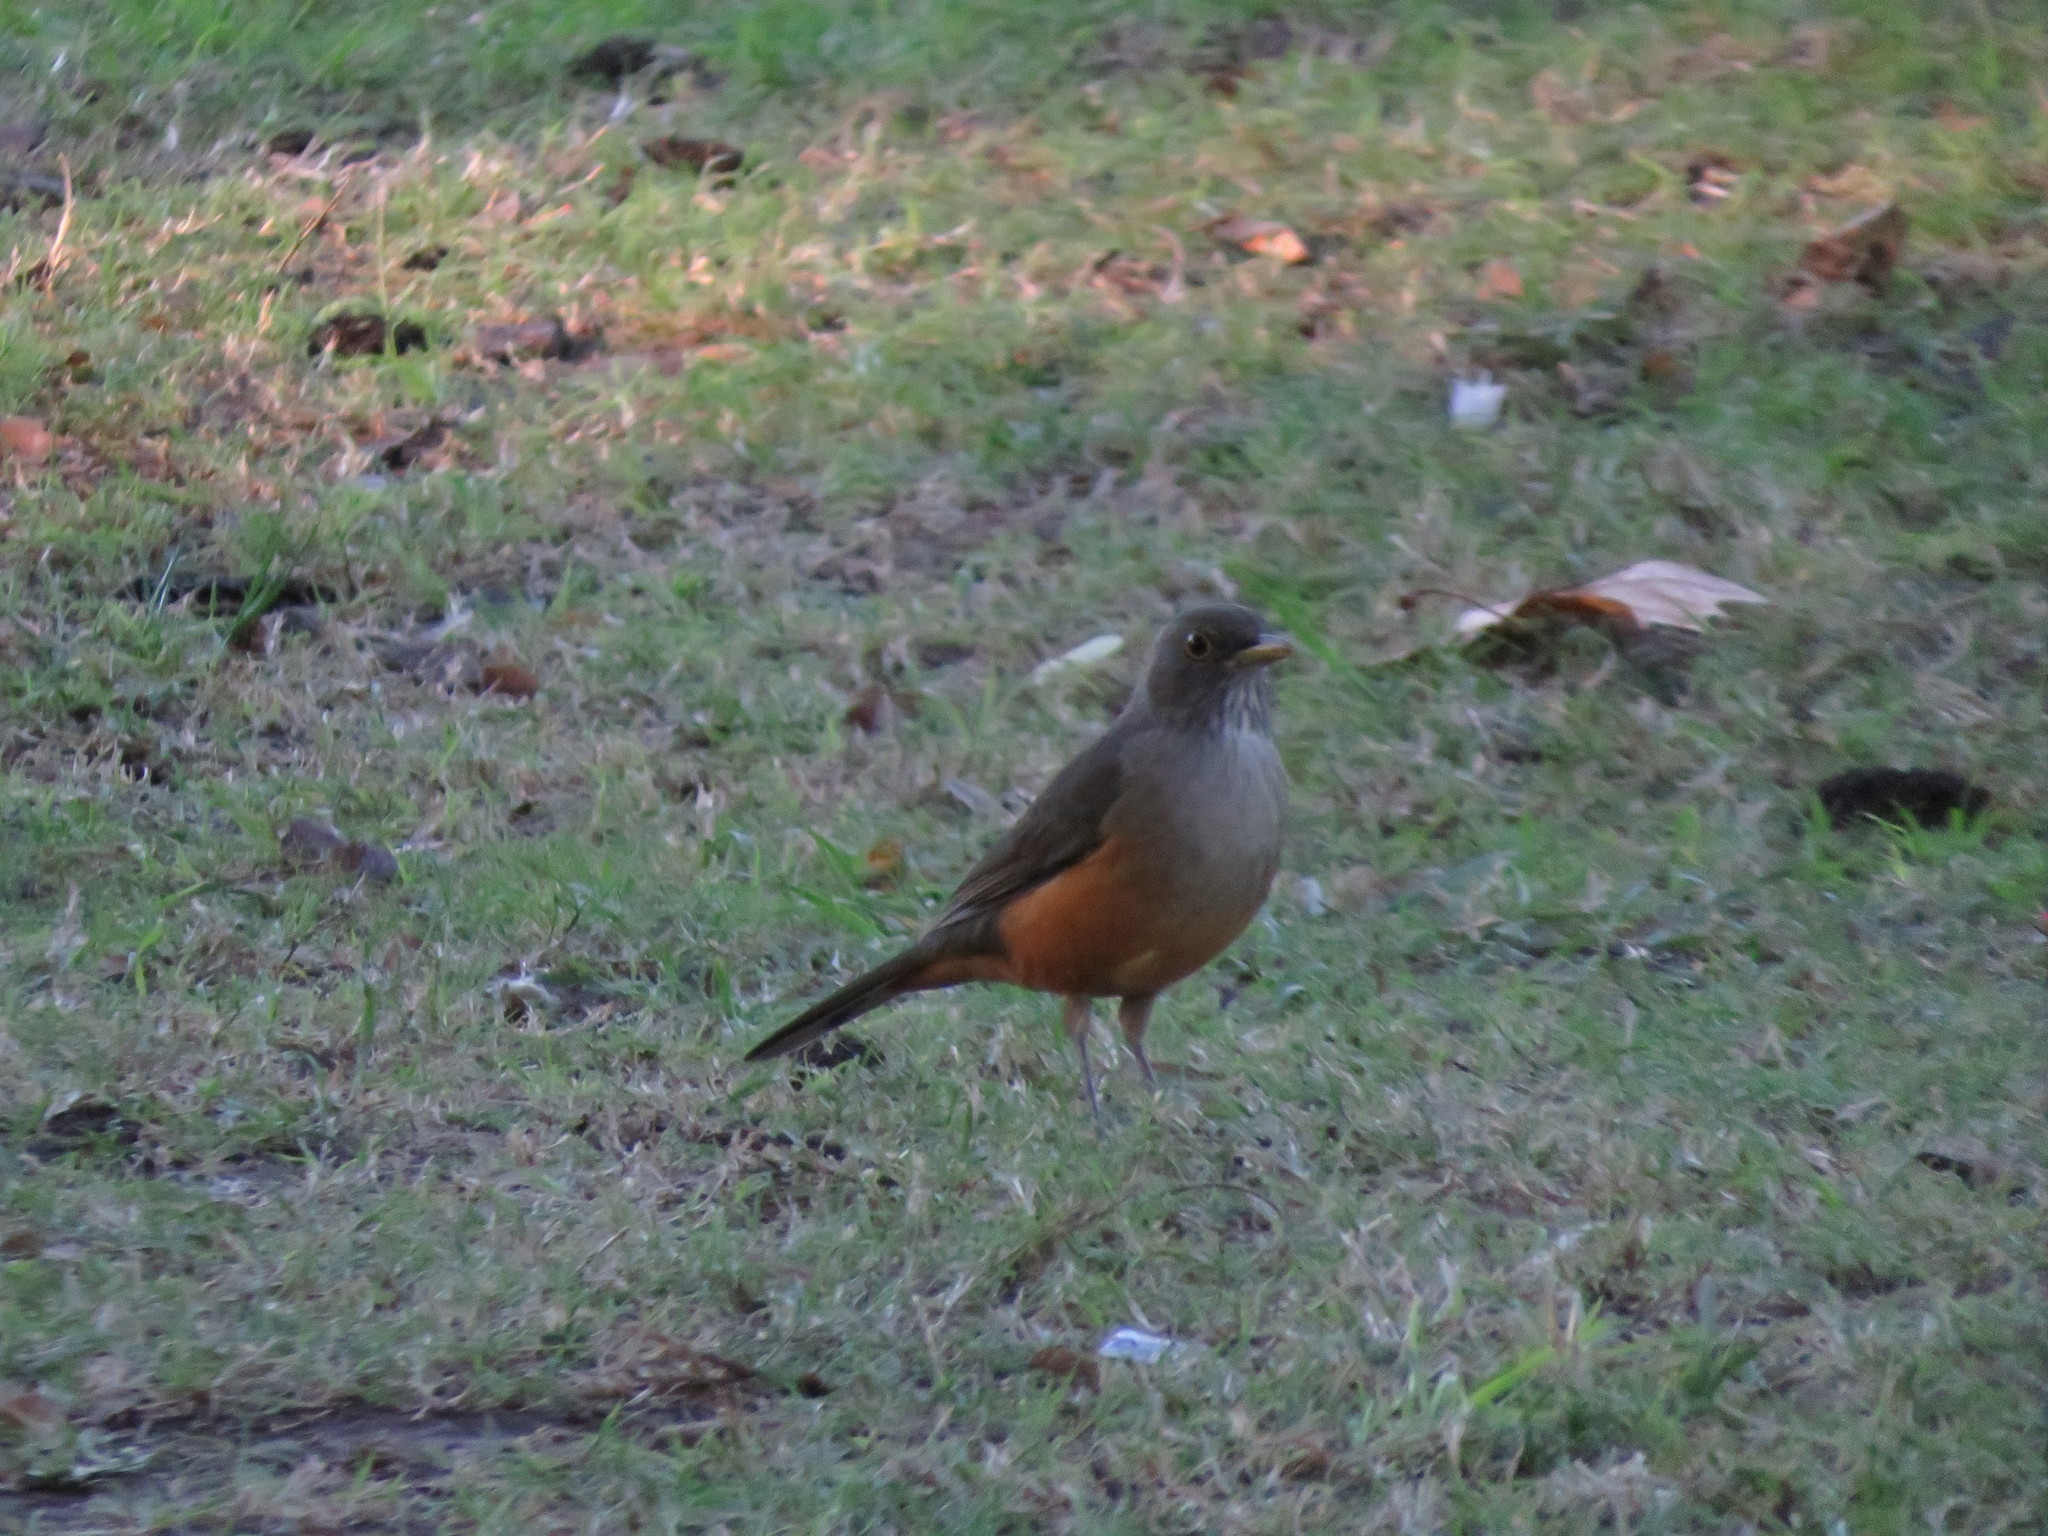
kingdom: Animalia
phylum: Chordata
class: Aves
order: Passeriformes
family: Turdidae
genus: Turdus
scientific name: Turdus rufiventris
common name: Rufous-bellied thrush
